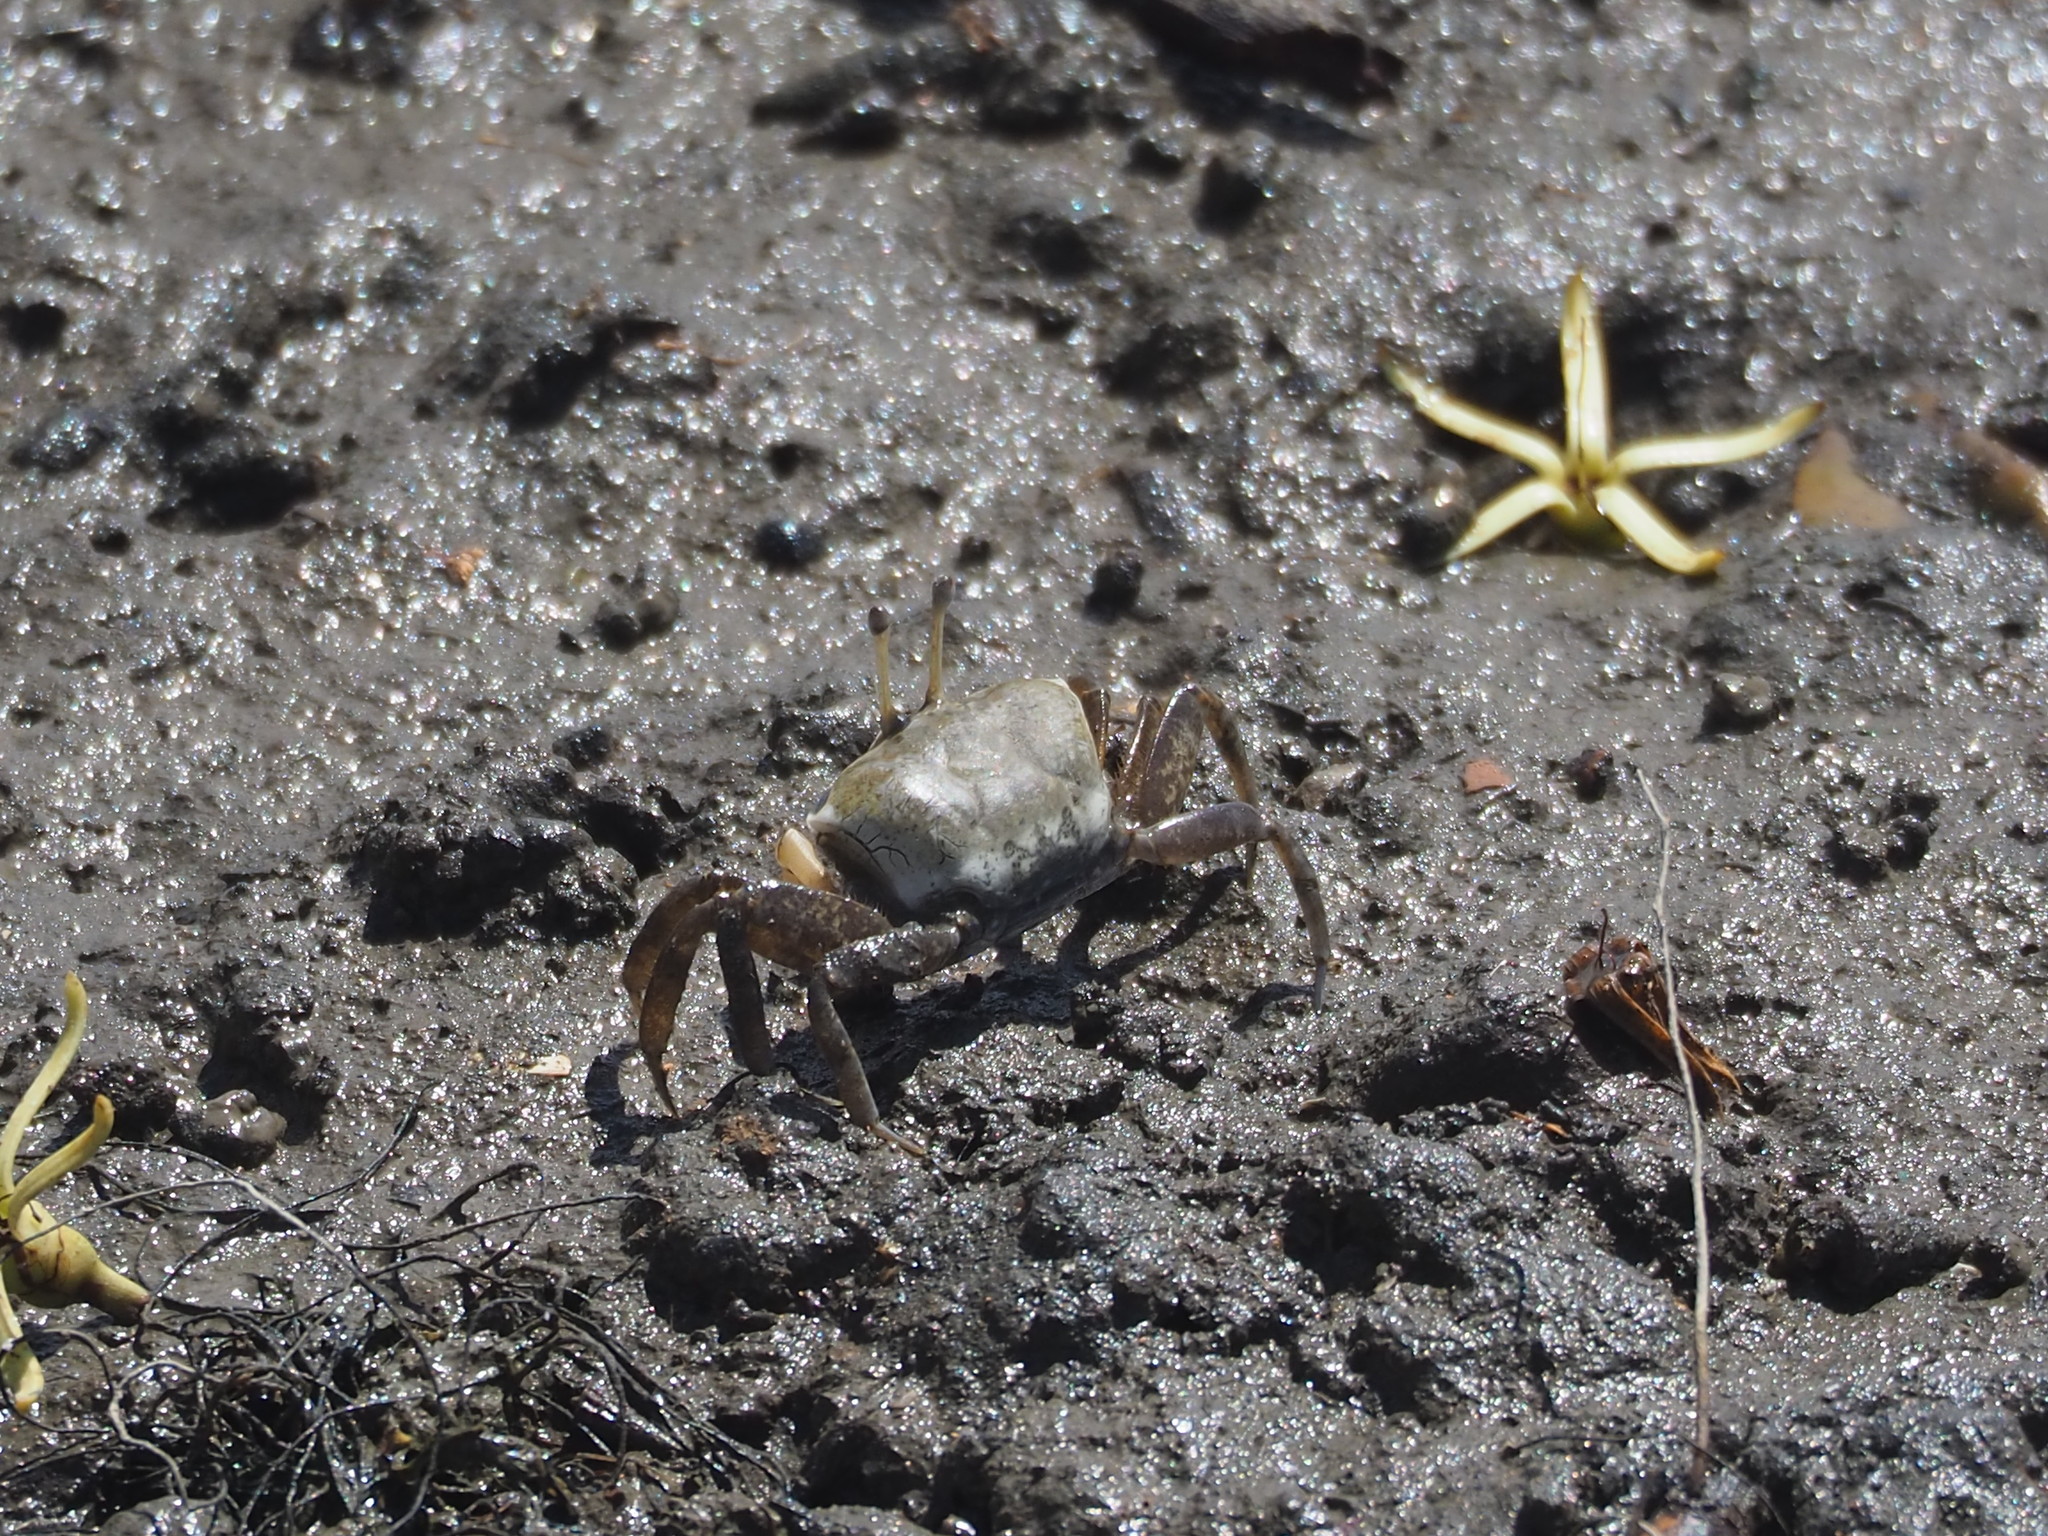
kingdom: Animalia
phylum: Arthropoda
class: Malacostraca
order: Decapoda
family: Ocypodidae
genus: Gelasimus
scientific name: Gelasimus borealis
